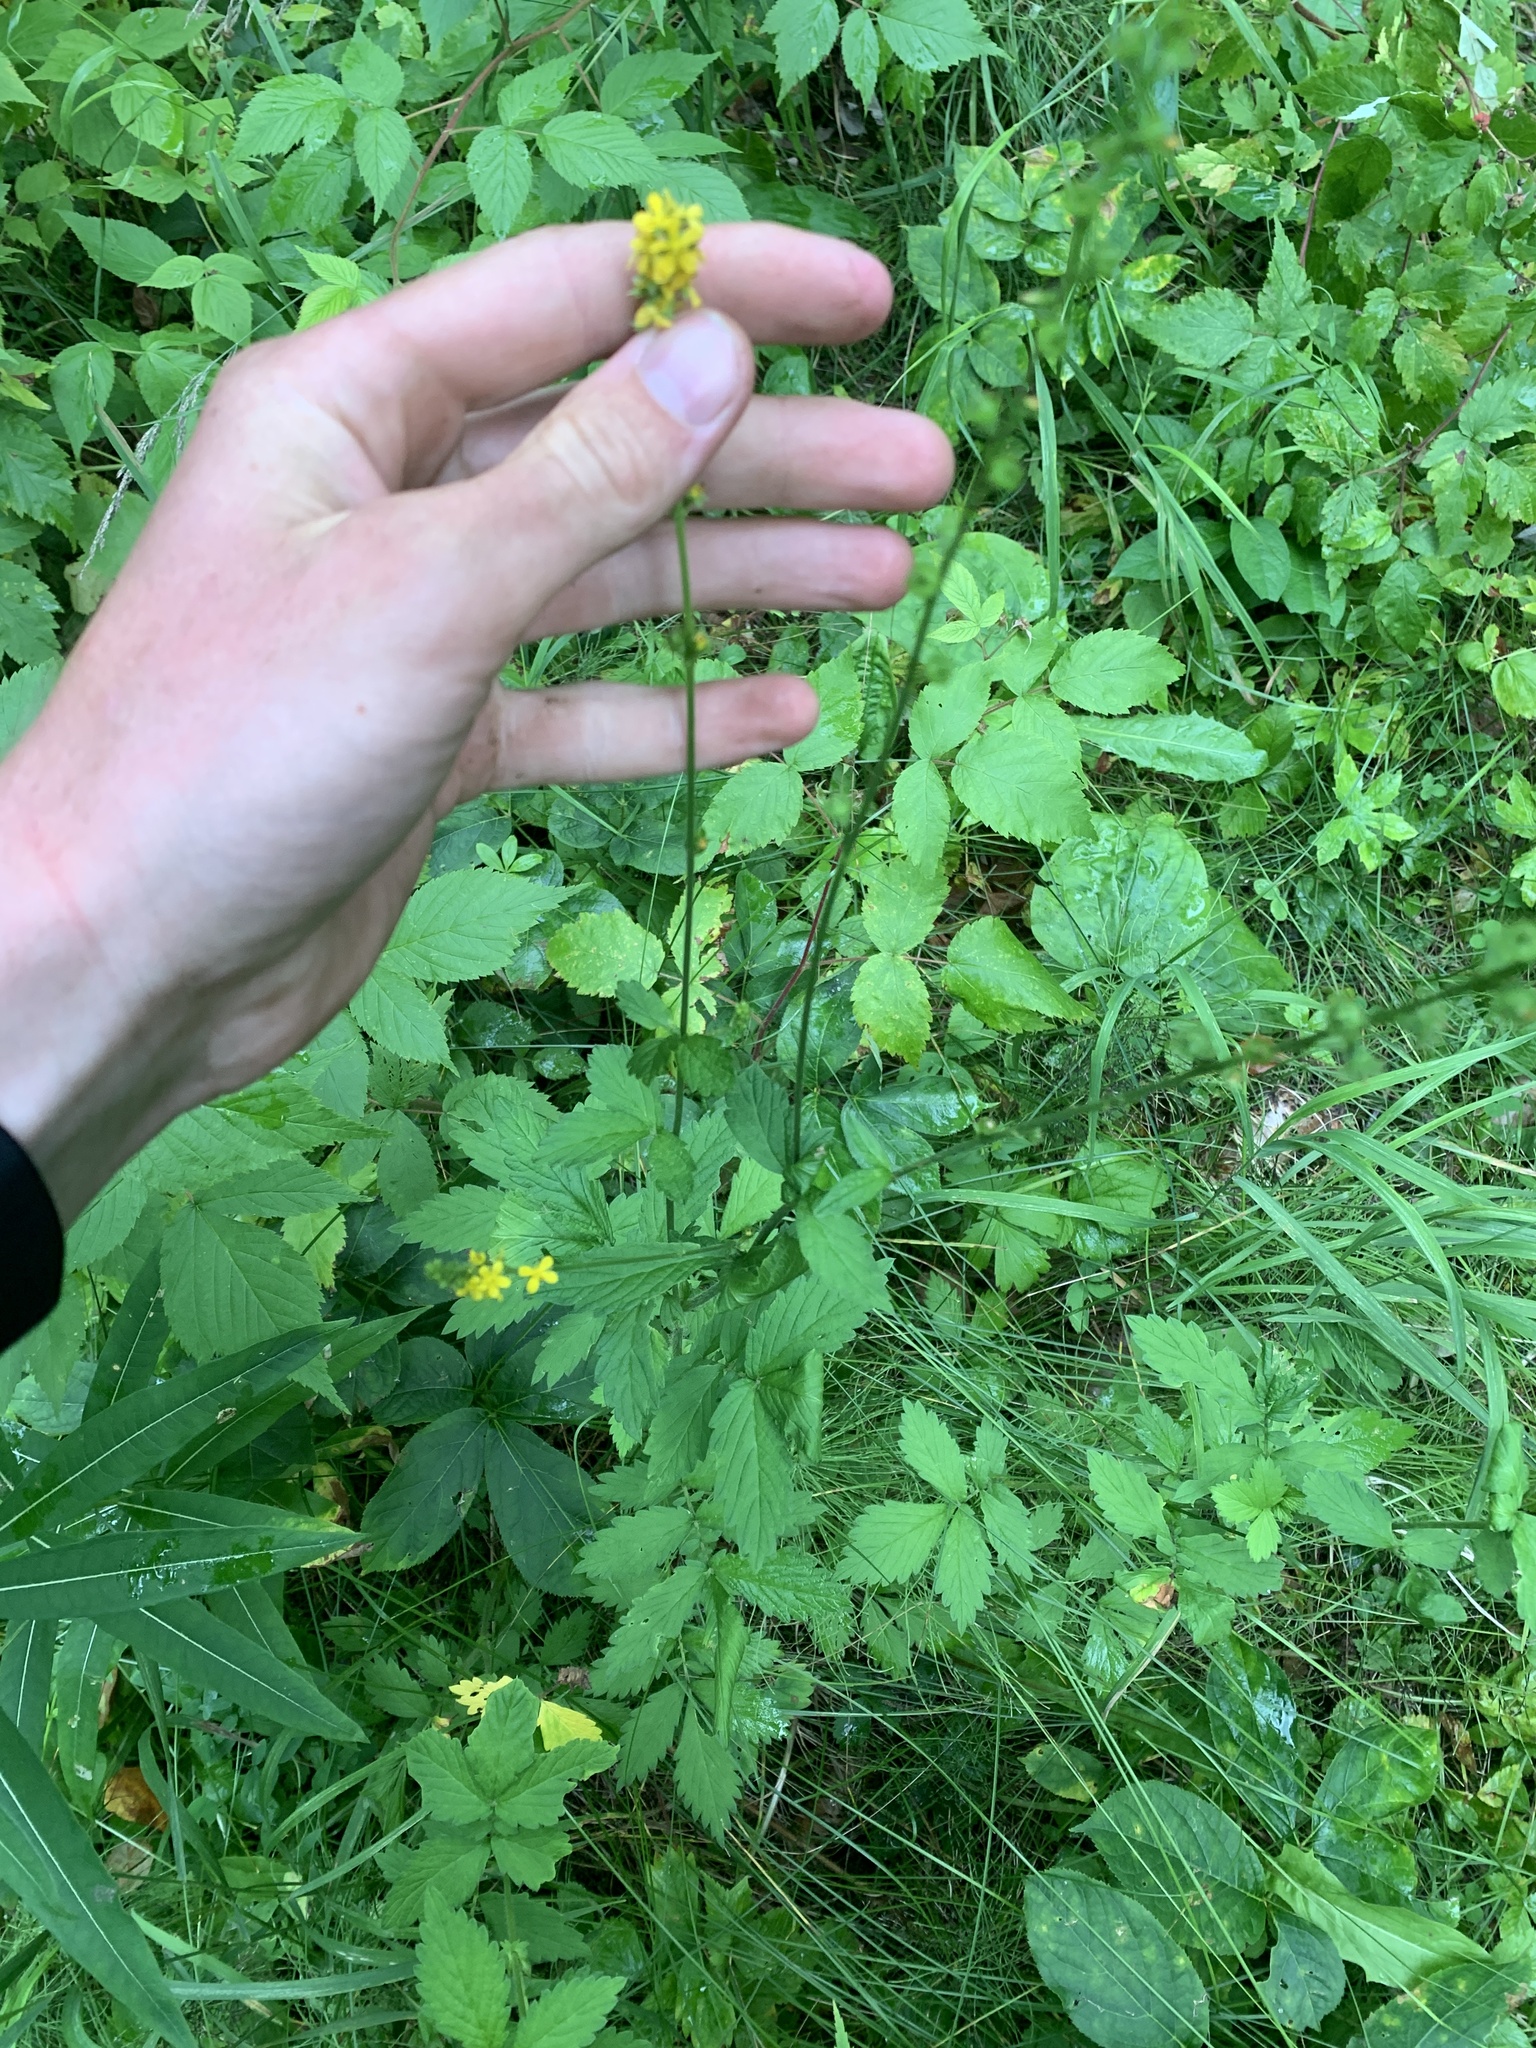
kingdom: Plantae
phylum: Tracheophyta
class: Magnoliopsida
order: Rosales
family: Rosaceae
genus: Agrimonia
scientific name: Agrimonia striata
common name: Britton's agrimony
